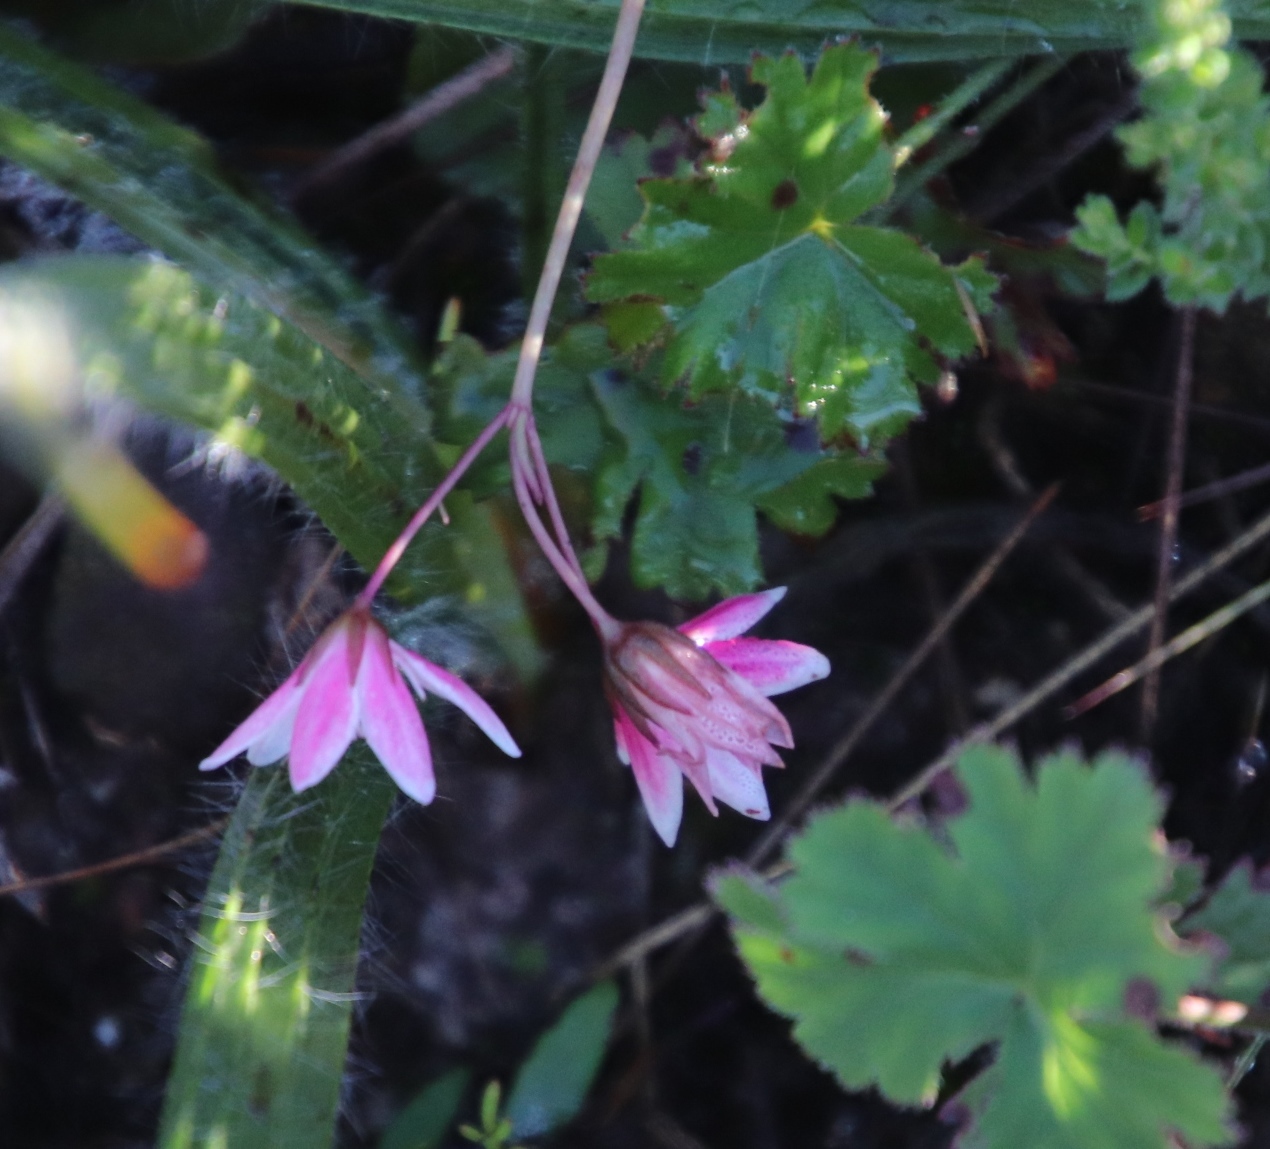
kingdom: Plantae
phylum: Tracheophyta
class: Magnoliopsida
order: Saxifragales
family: Crassulaceae
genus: Crassula
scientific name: Crassula capensis
